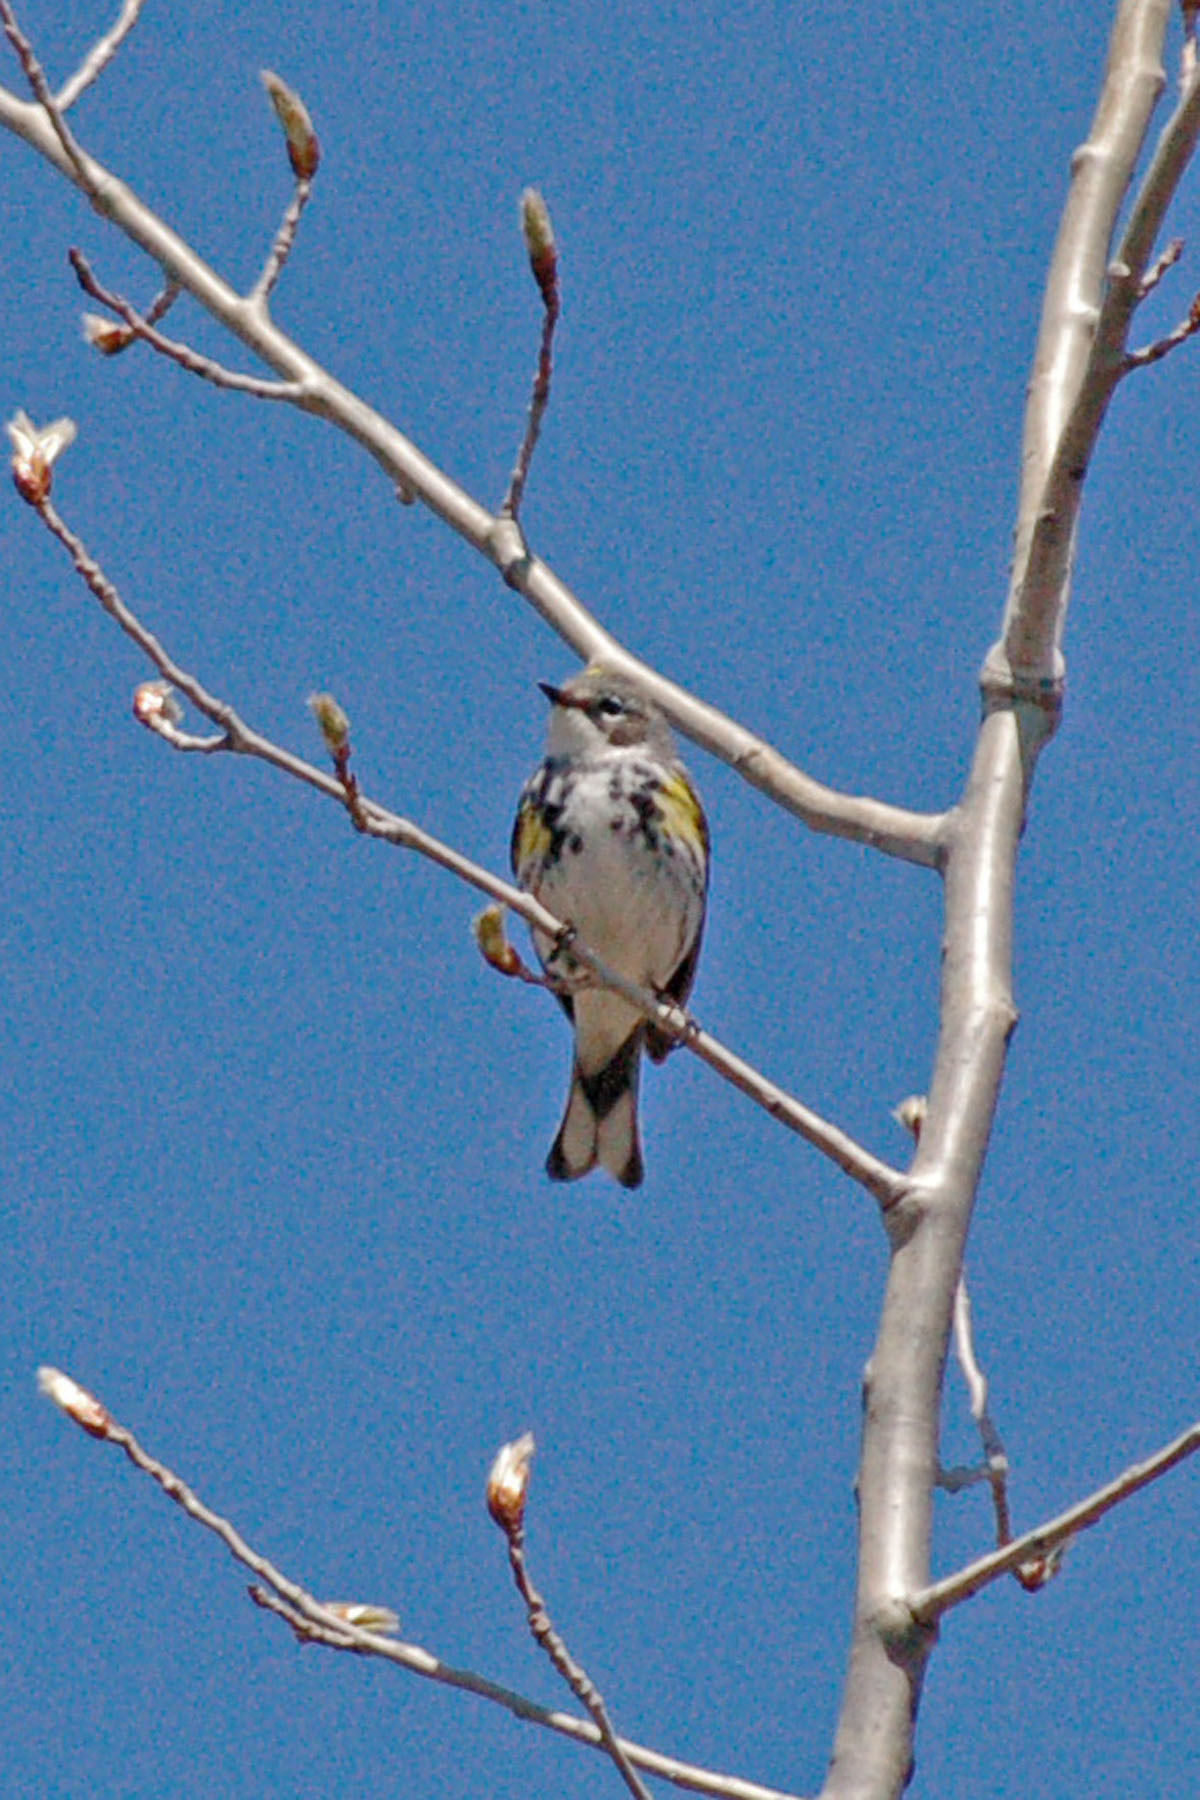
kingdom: Animalia
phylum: Chordata
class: Aves
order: Passeriformes
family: Parulidae
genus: Setophaga
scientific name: Setophaga coronata
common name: Myrtle warbler
